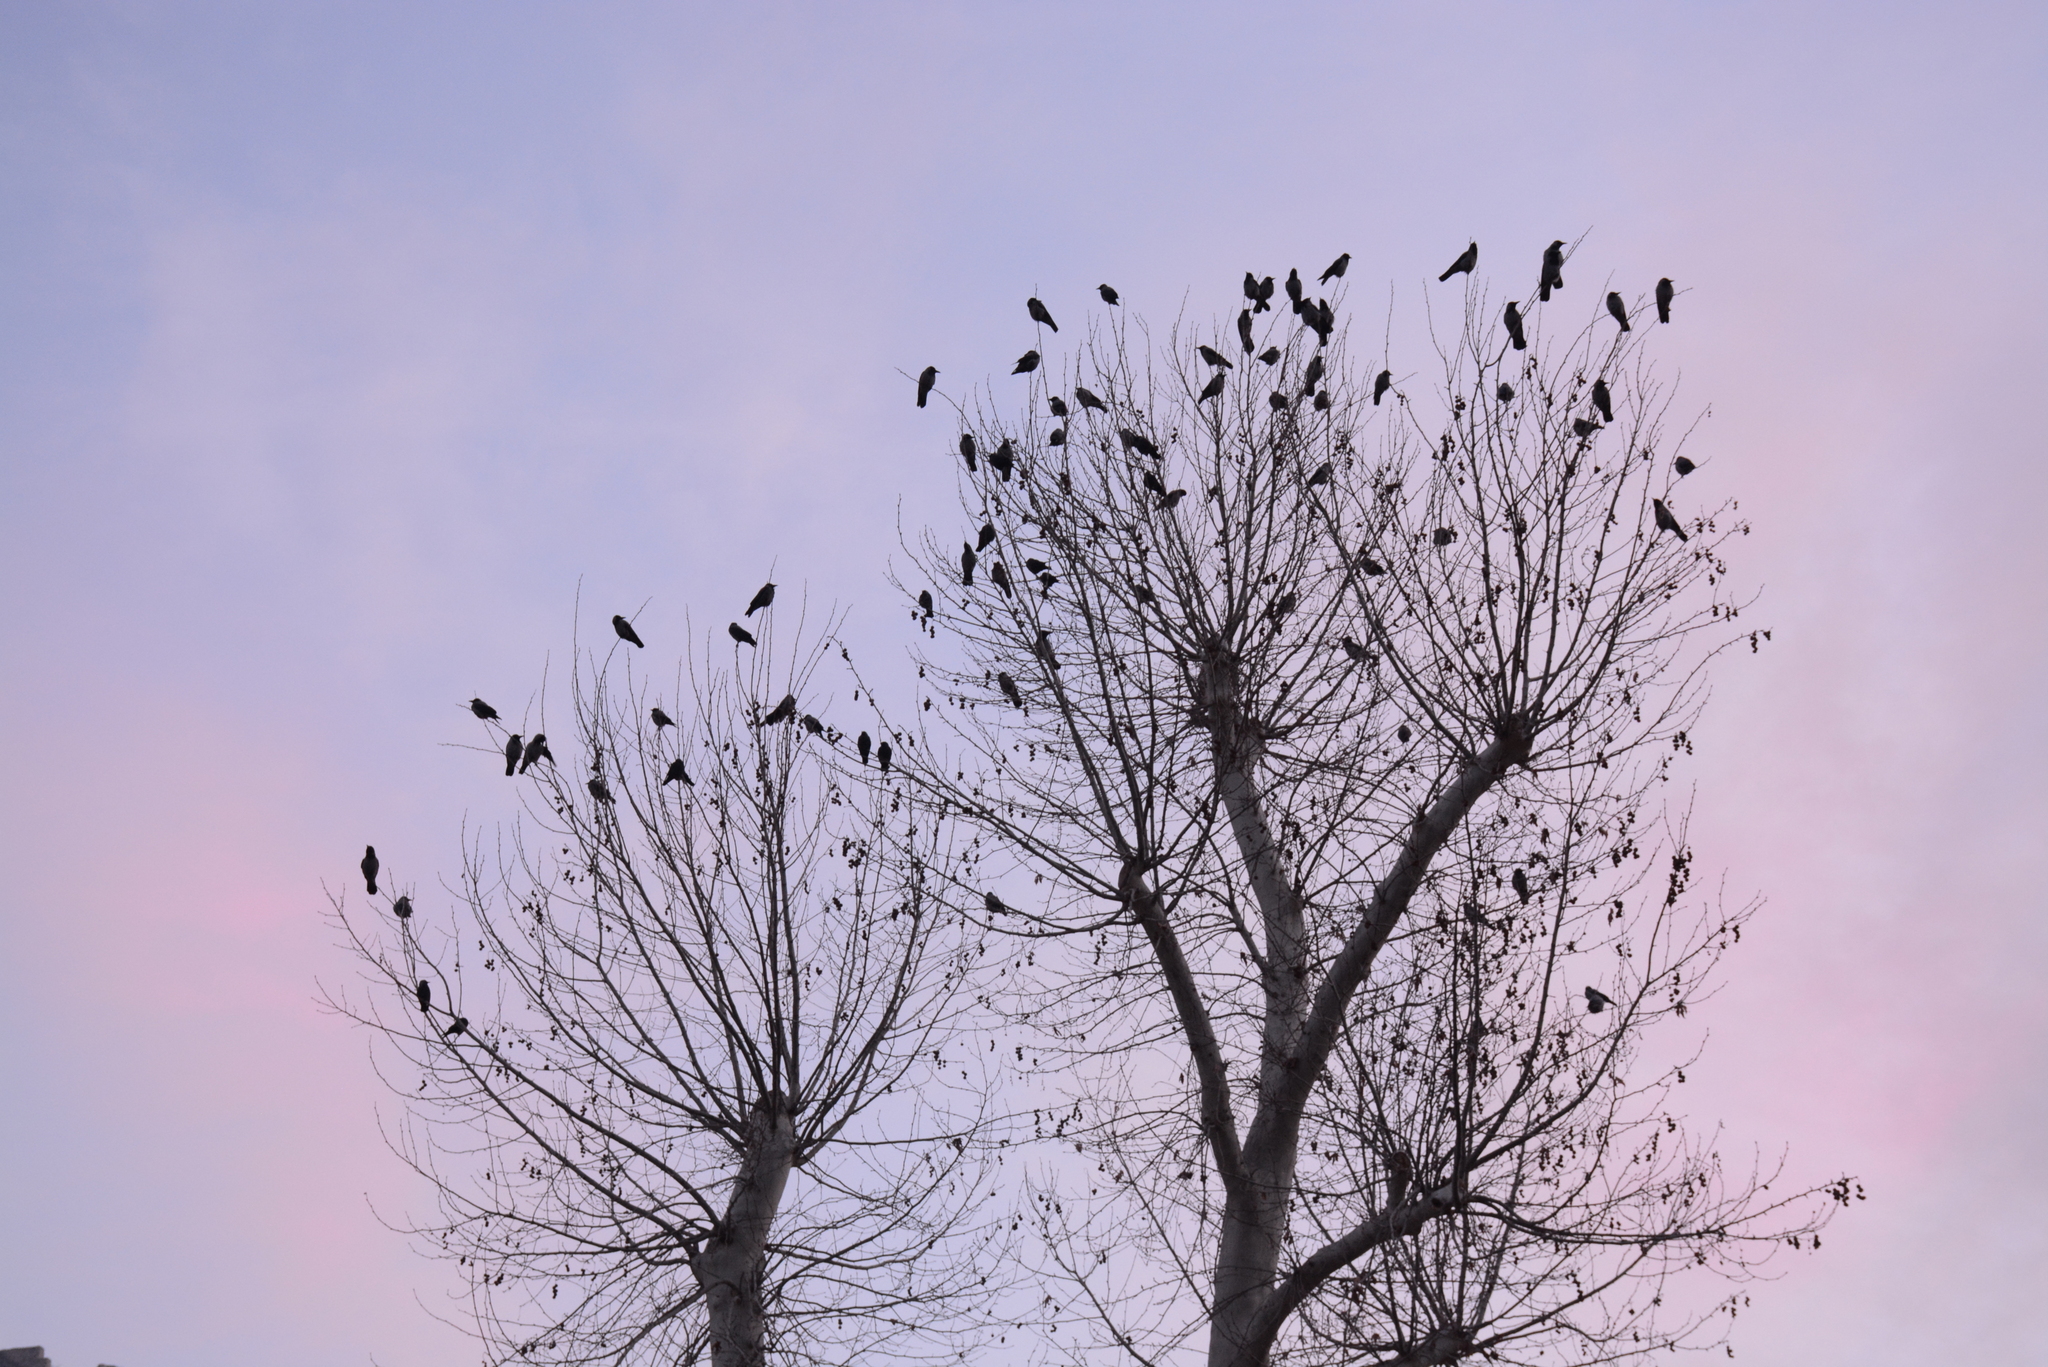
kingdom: Animalia
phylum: Chordata
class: Aves
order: Passeriformes
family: Corvidae
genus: Corvus
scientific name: Corvus cornix
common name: Hooded crow
